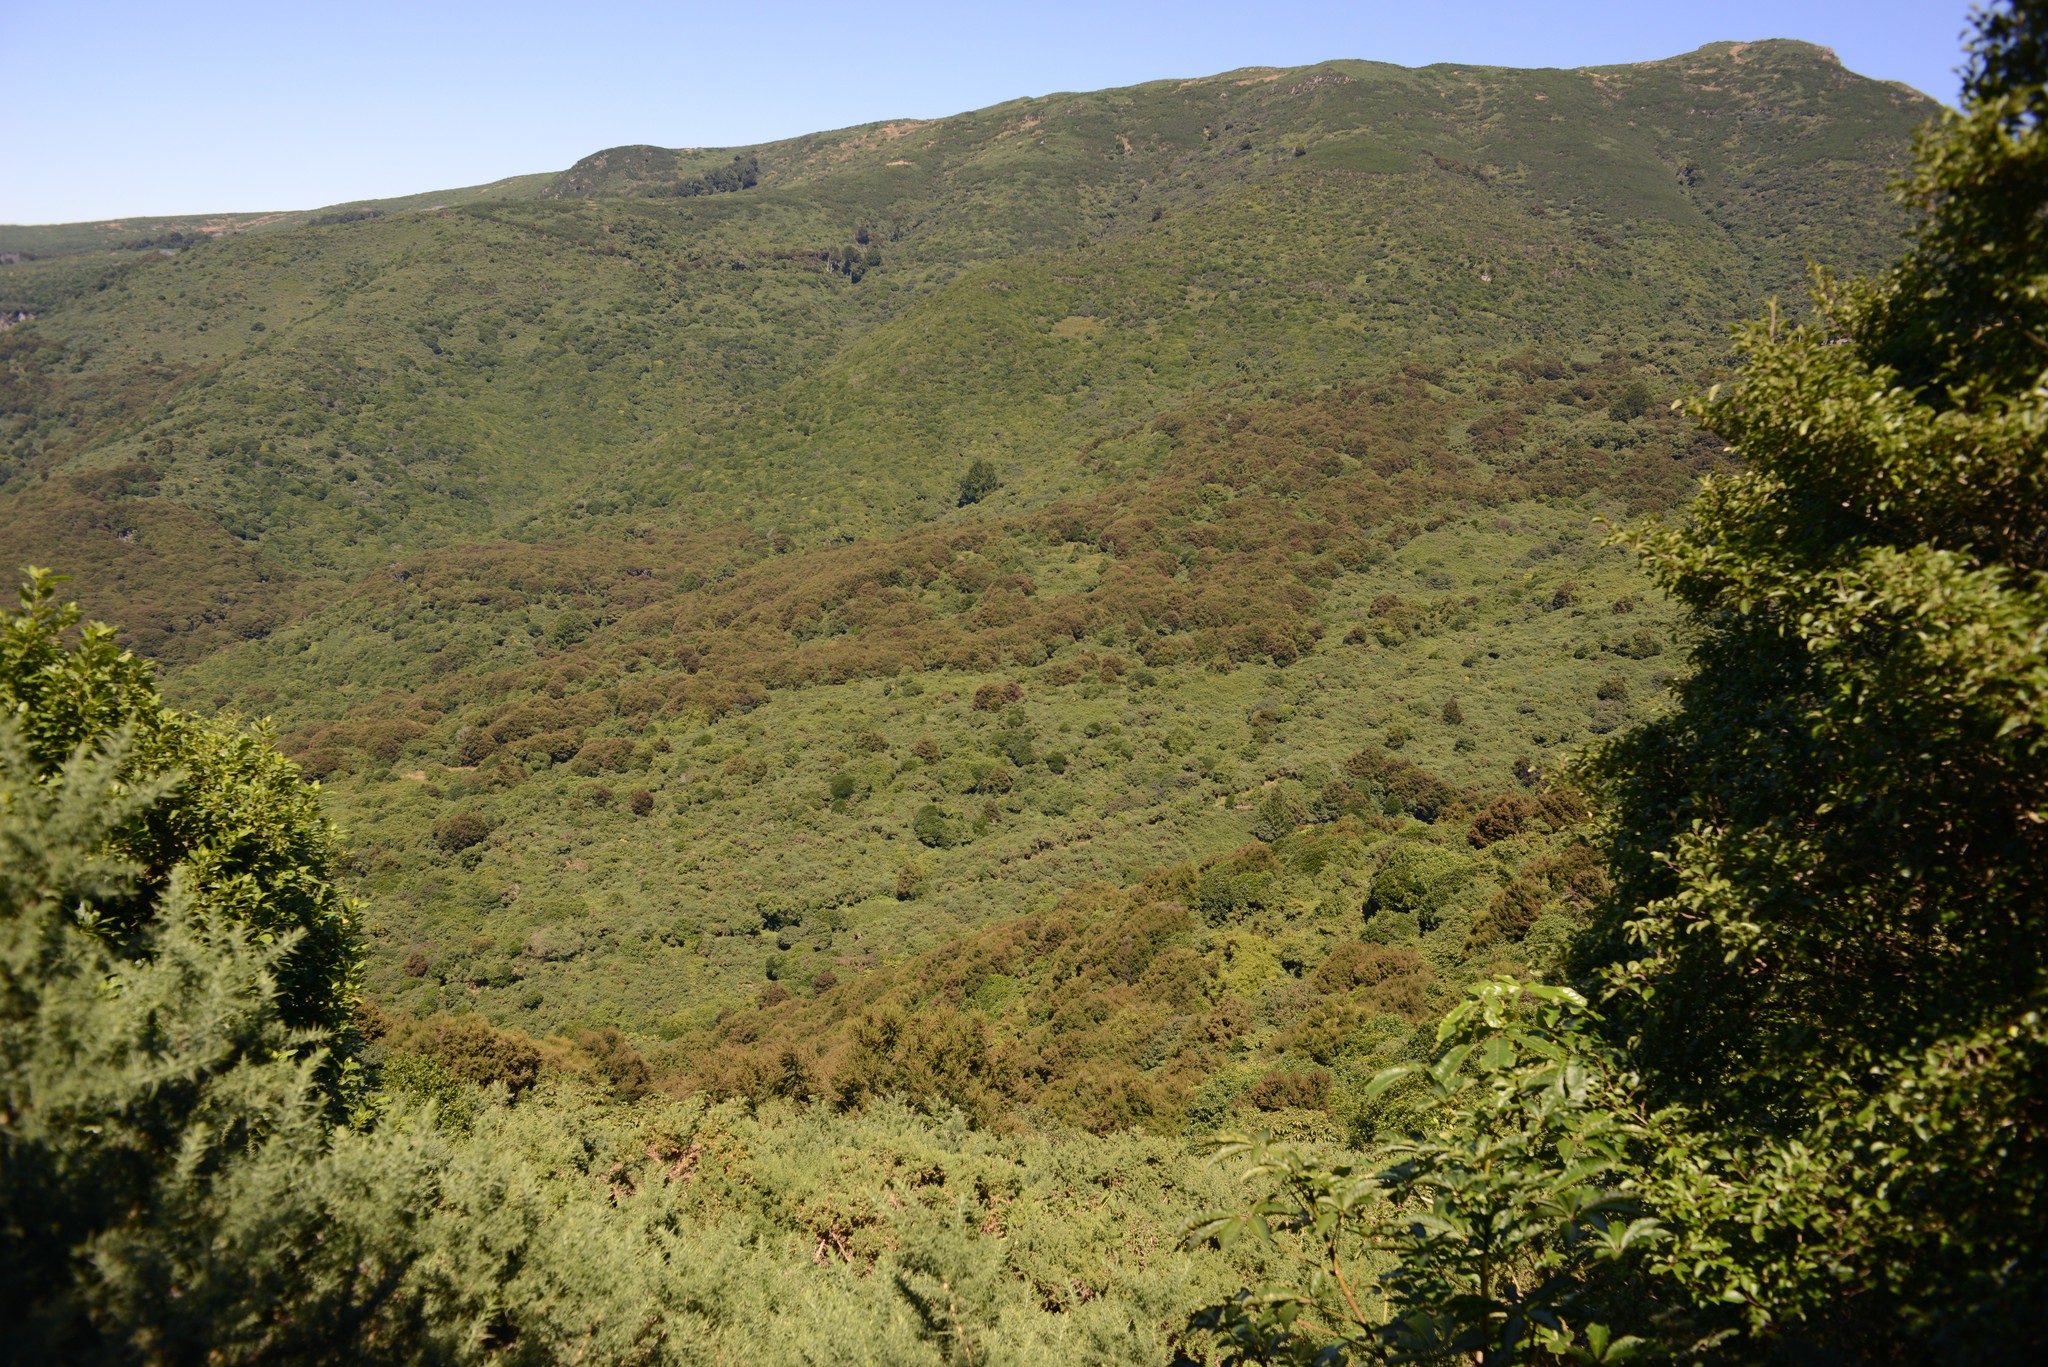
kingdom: Plantae
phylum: Tracheophyta
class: Magnoliopsida
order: Fabales
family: Fabaceae
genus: Ulex
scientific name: Ulex europaeus
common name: Common gorse
